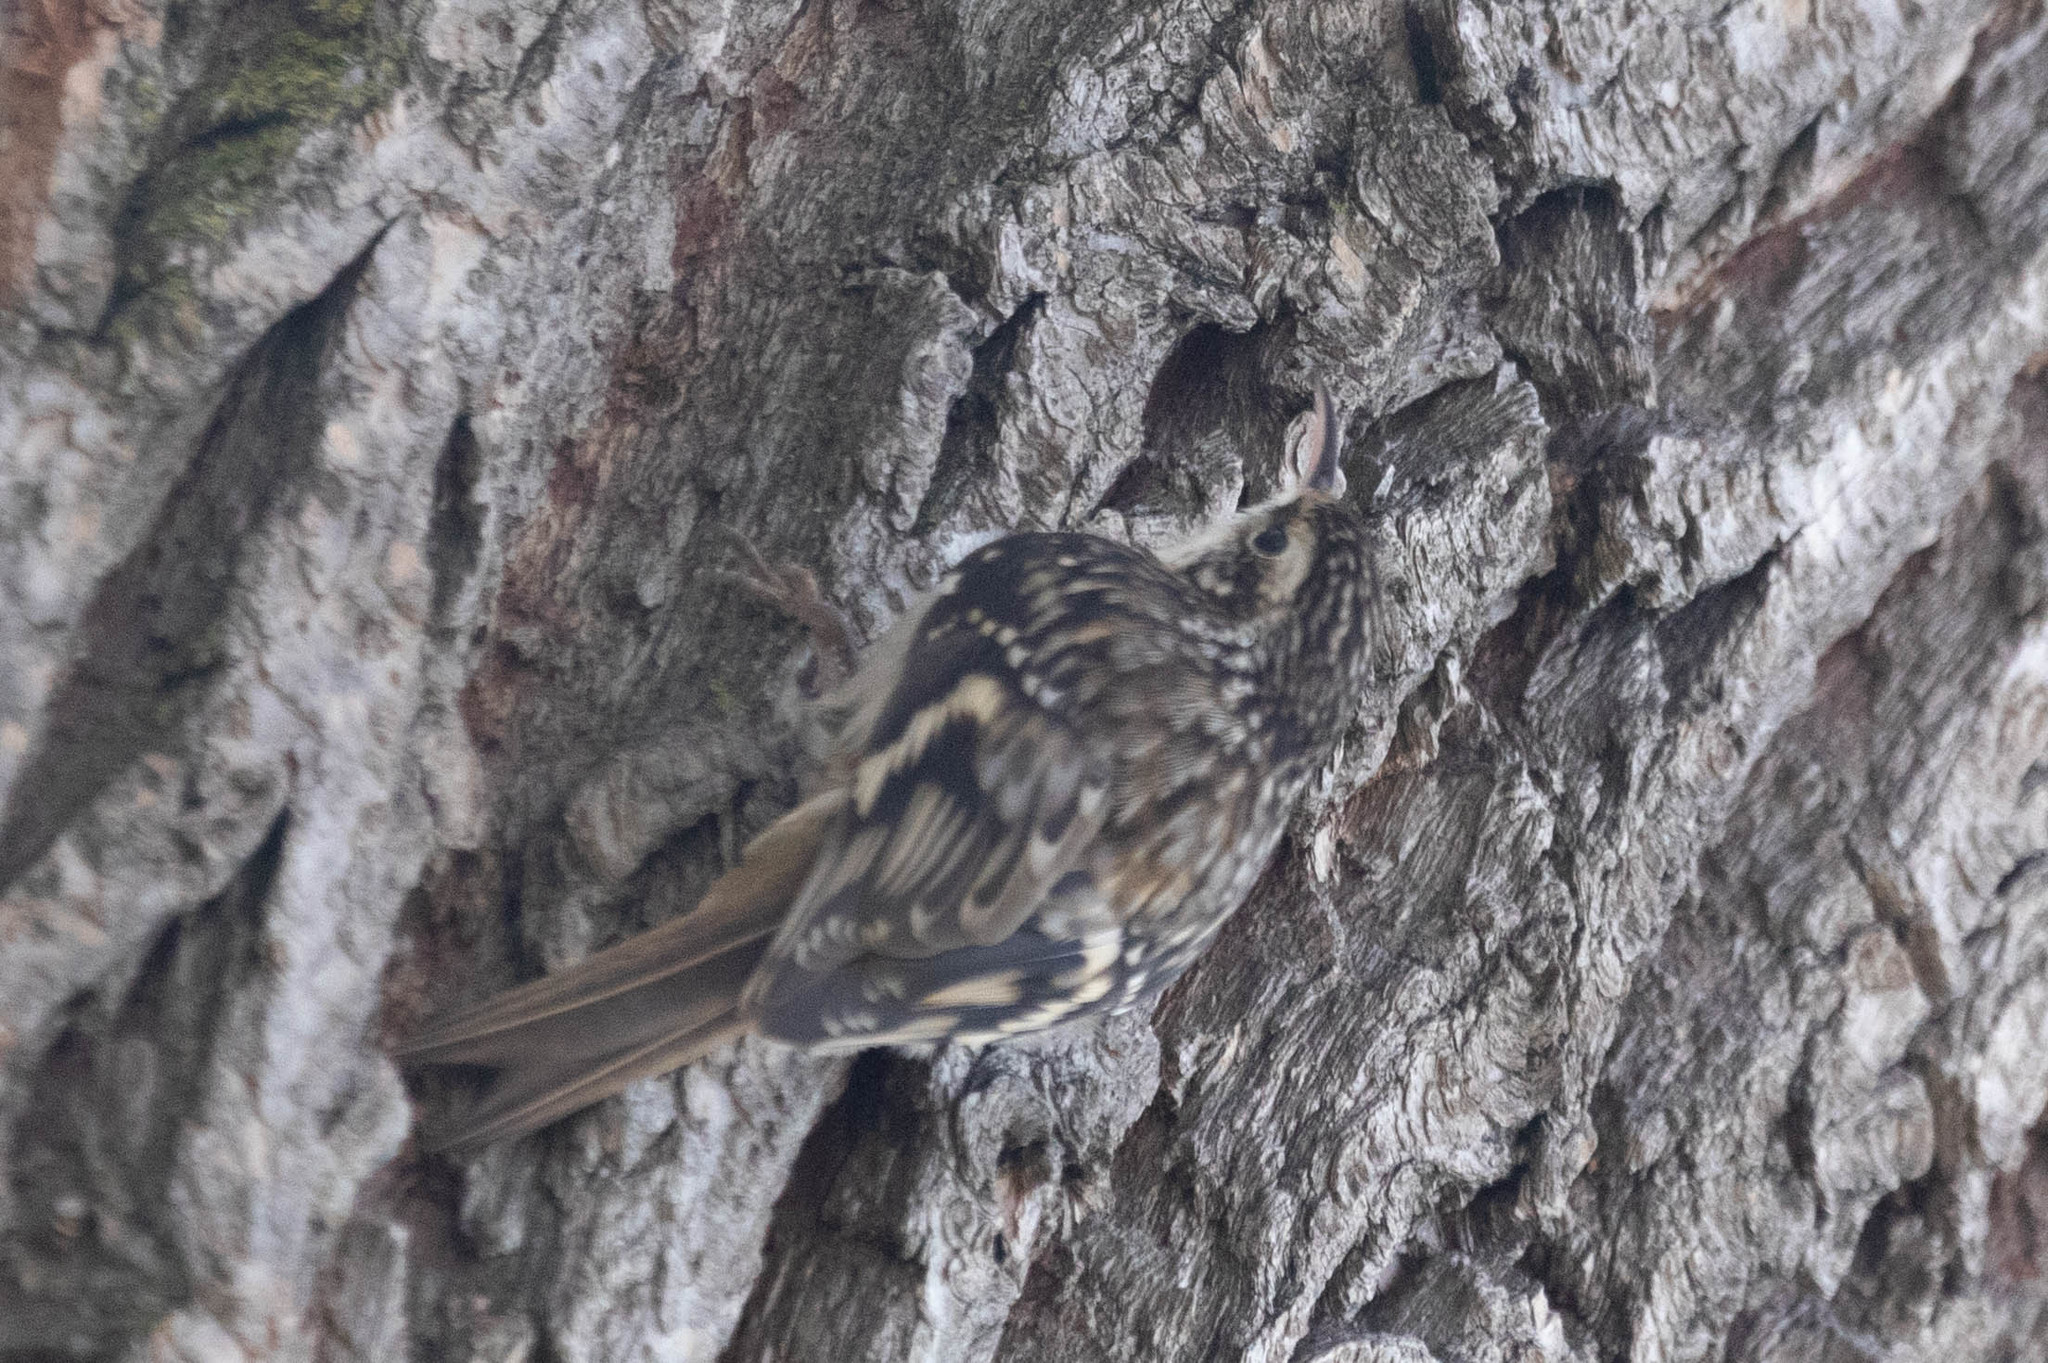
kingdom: Animalia
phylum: Chordata
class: Aves
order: Passeriformes
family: Certhiidae
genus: Certhia
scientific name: Certhia americana
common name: Brown creeper
